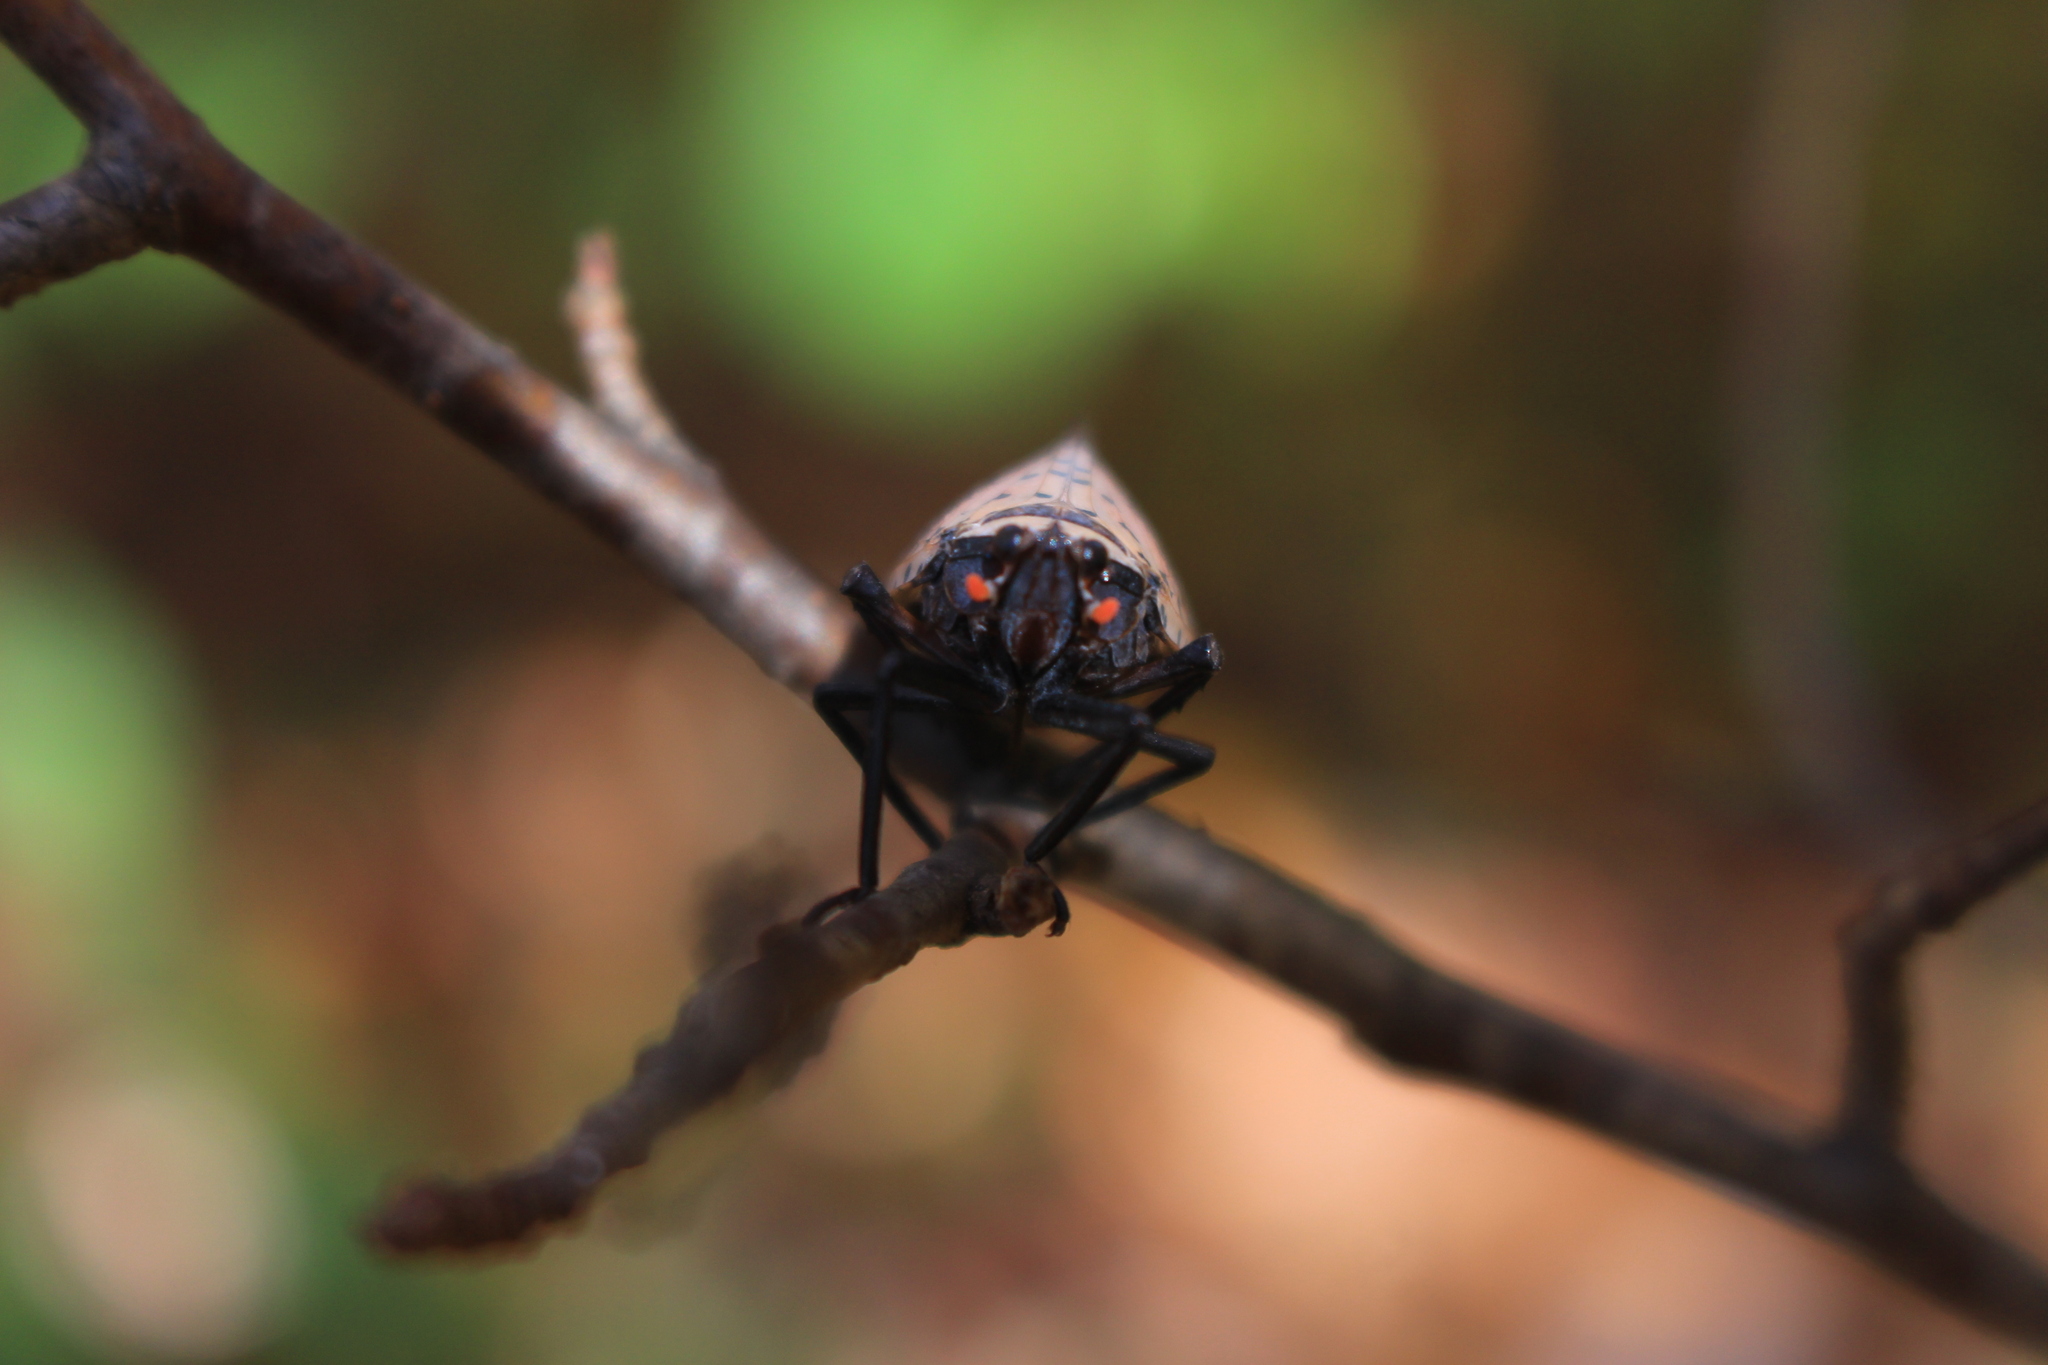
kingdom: Animalia
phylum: Arthropoda
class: Insecta
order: Hemiptera
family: Fulgoridae
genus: Lycorma
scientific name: Lycorma delicatula
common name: Spotted lanternfly
